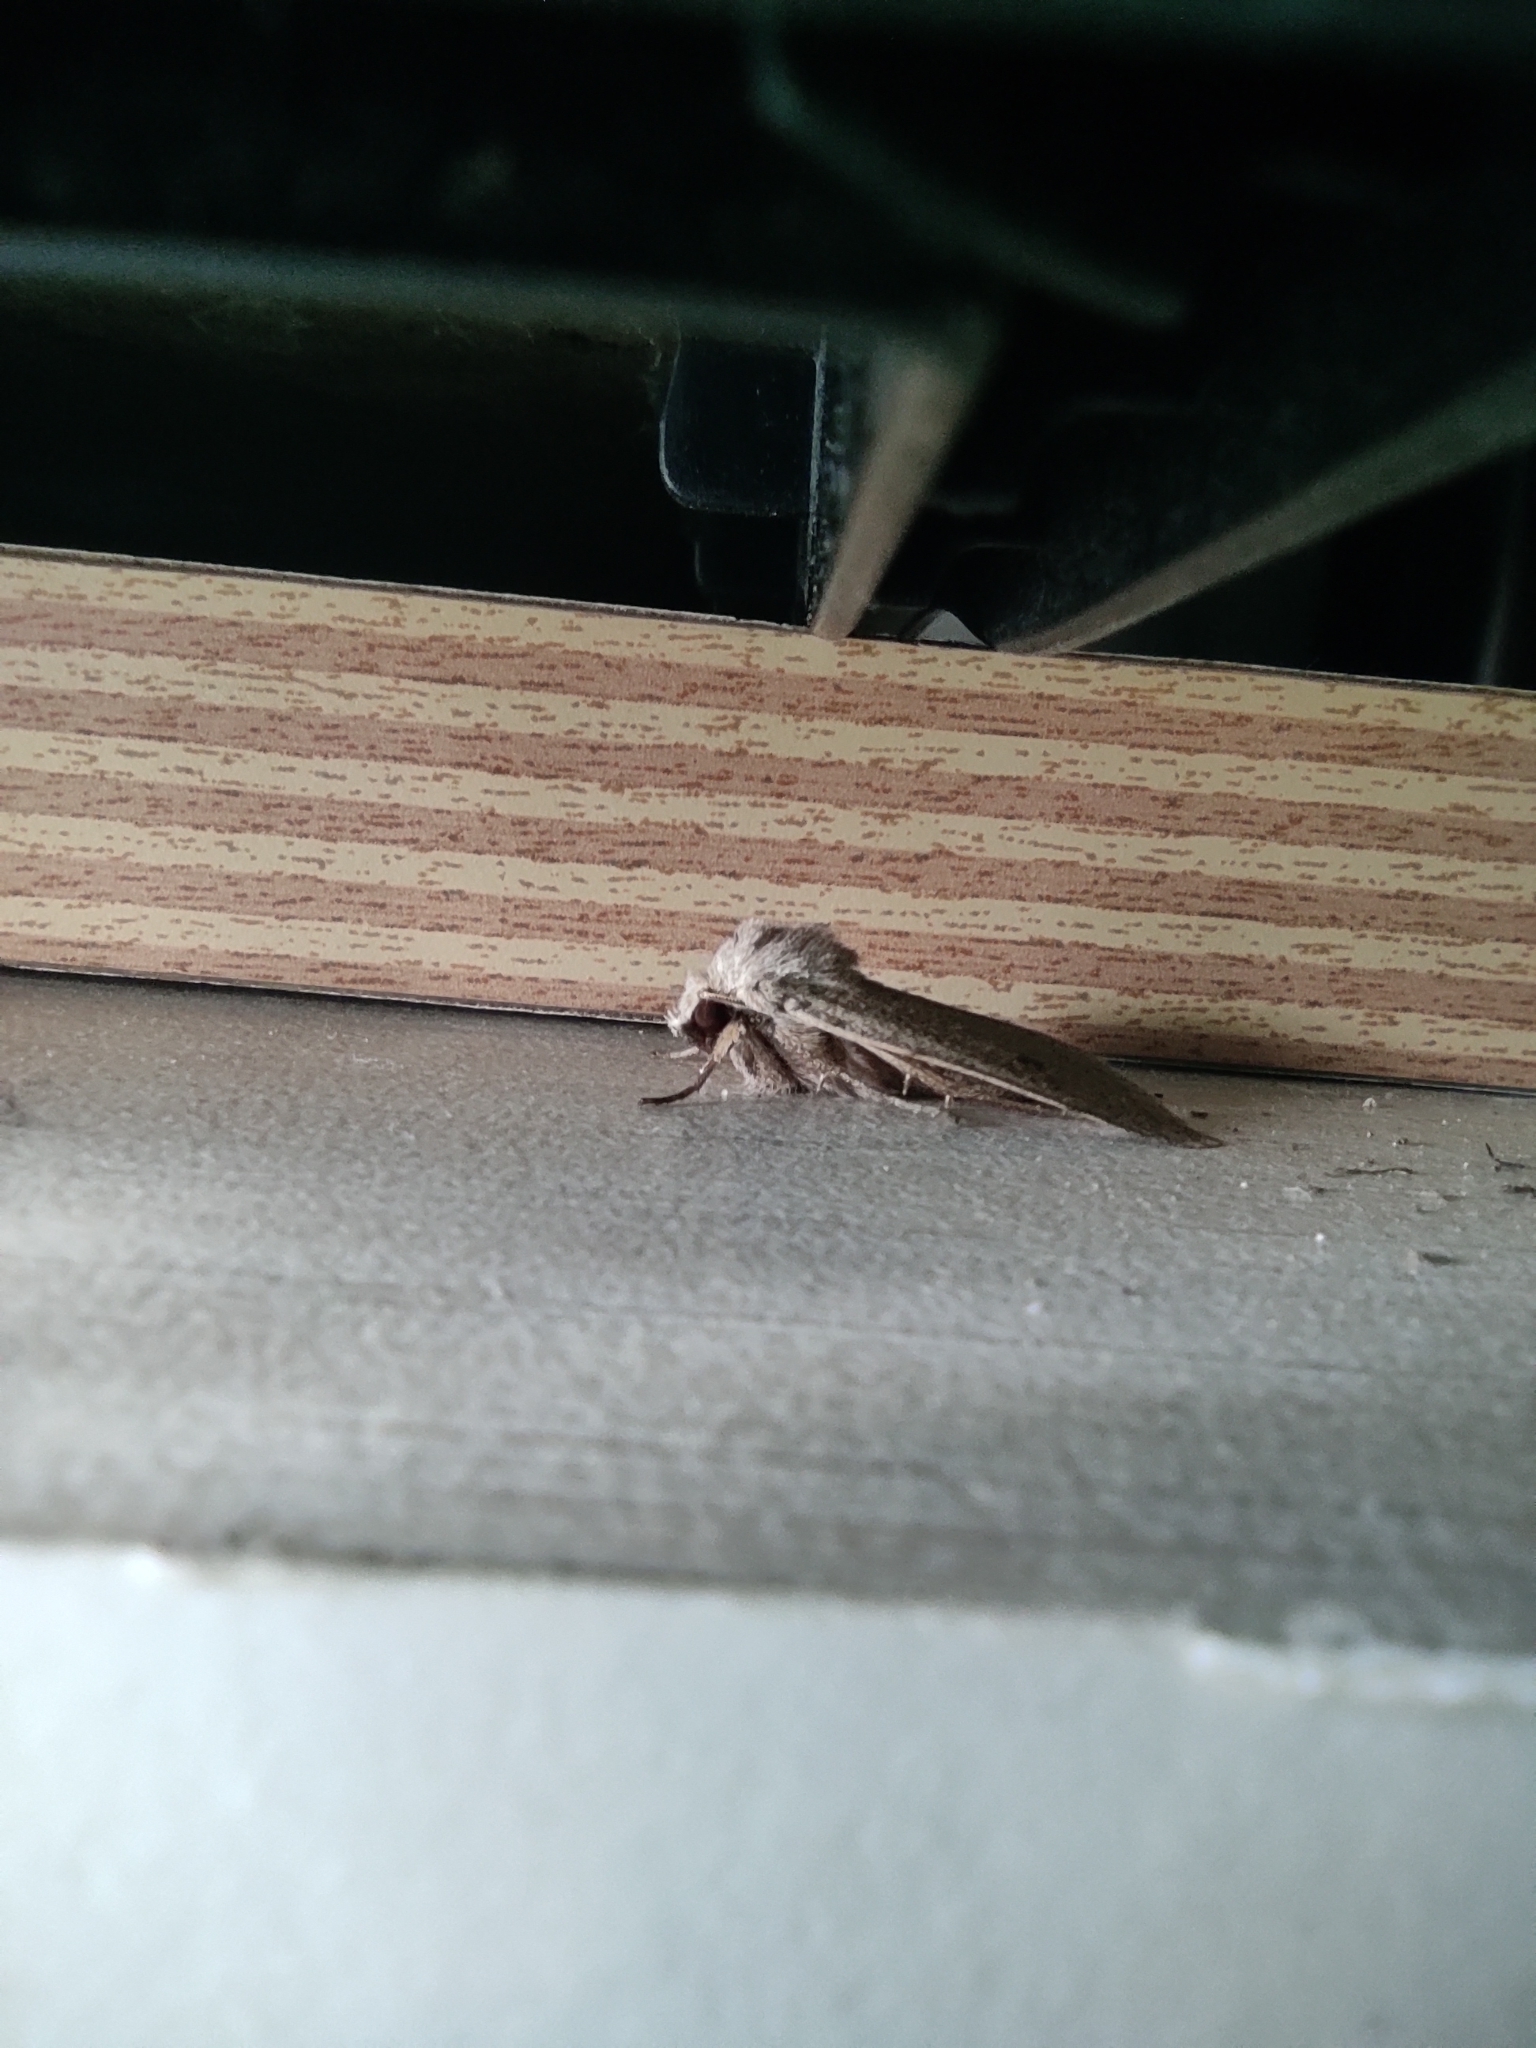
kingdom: Animalia
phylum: Arthropoda
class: Insecta
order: Lepidoptera
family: Noctuidae
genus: Xestia
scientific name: Xestia castanea
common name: Neglected rustic
